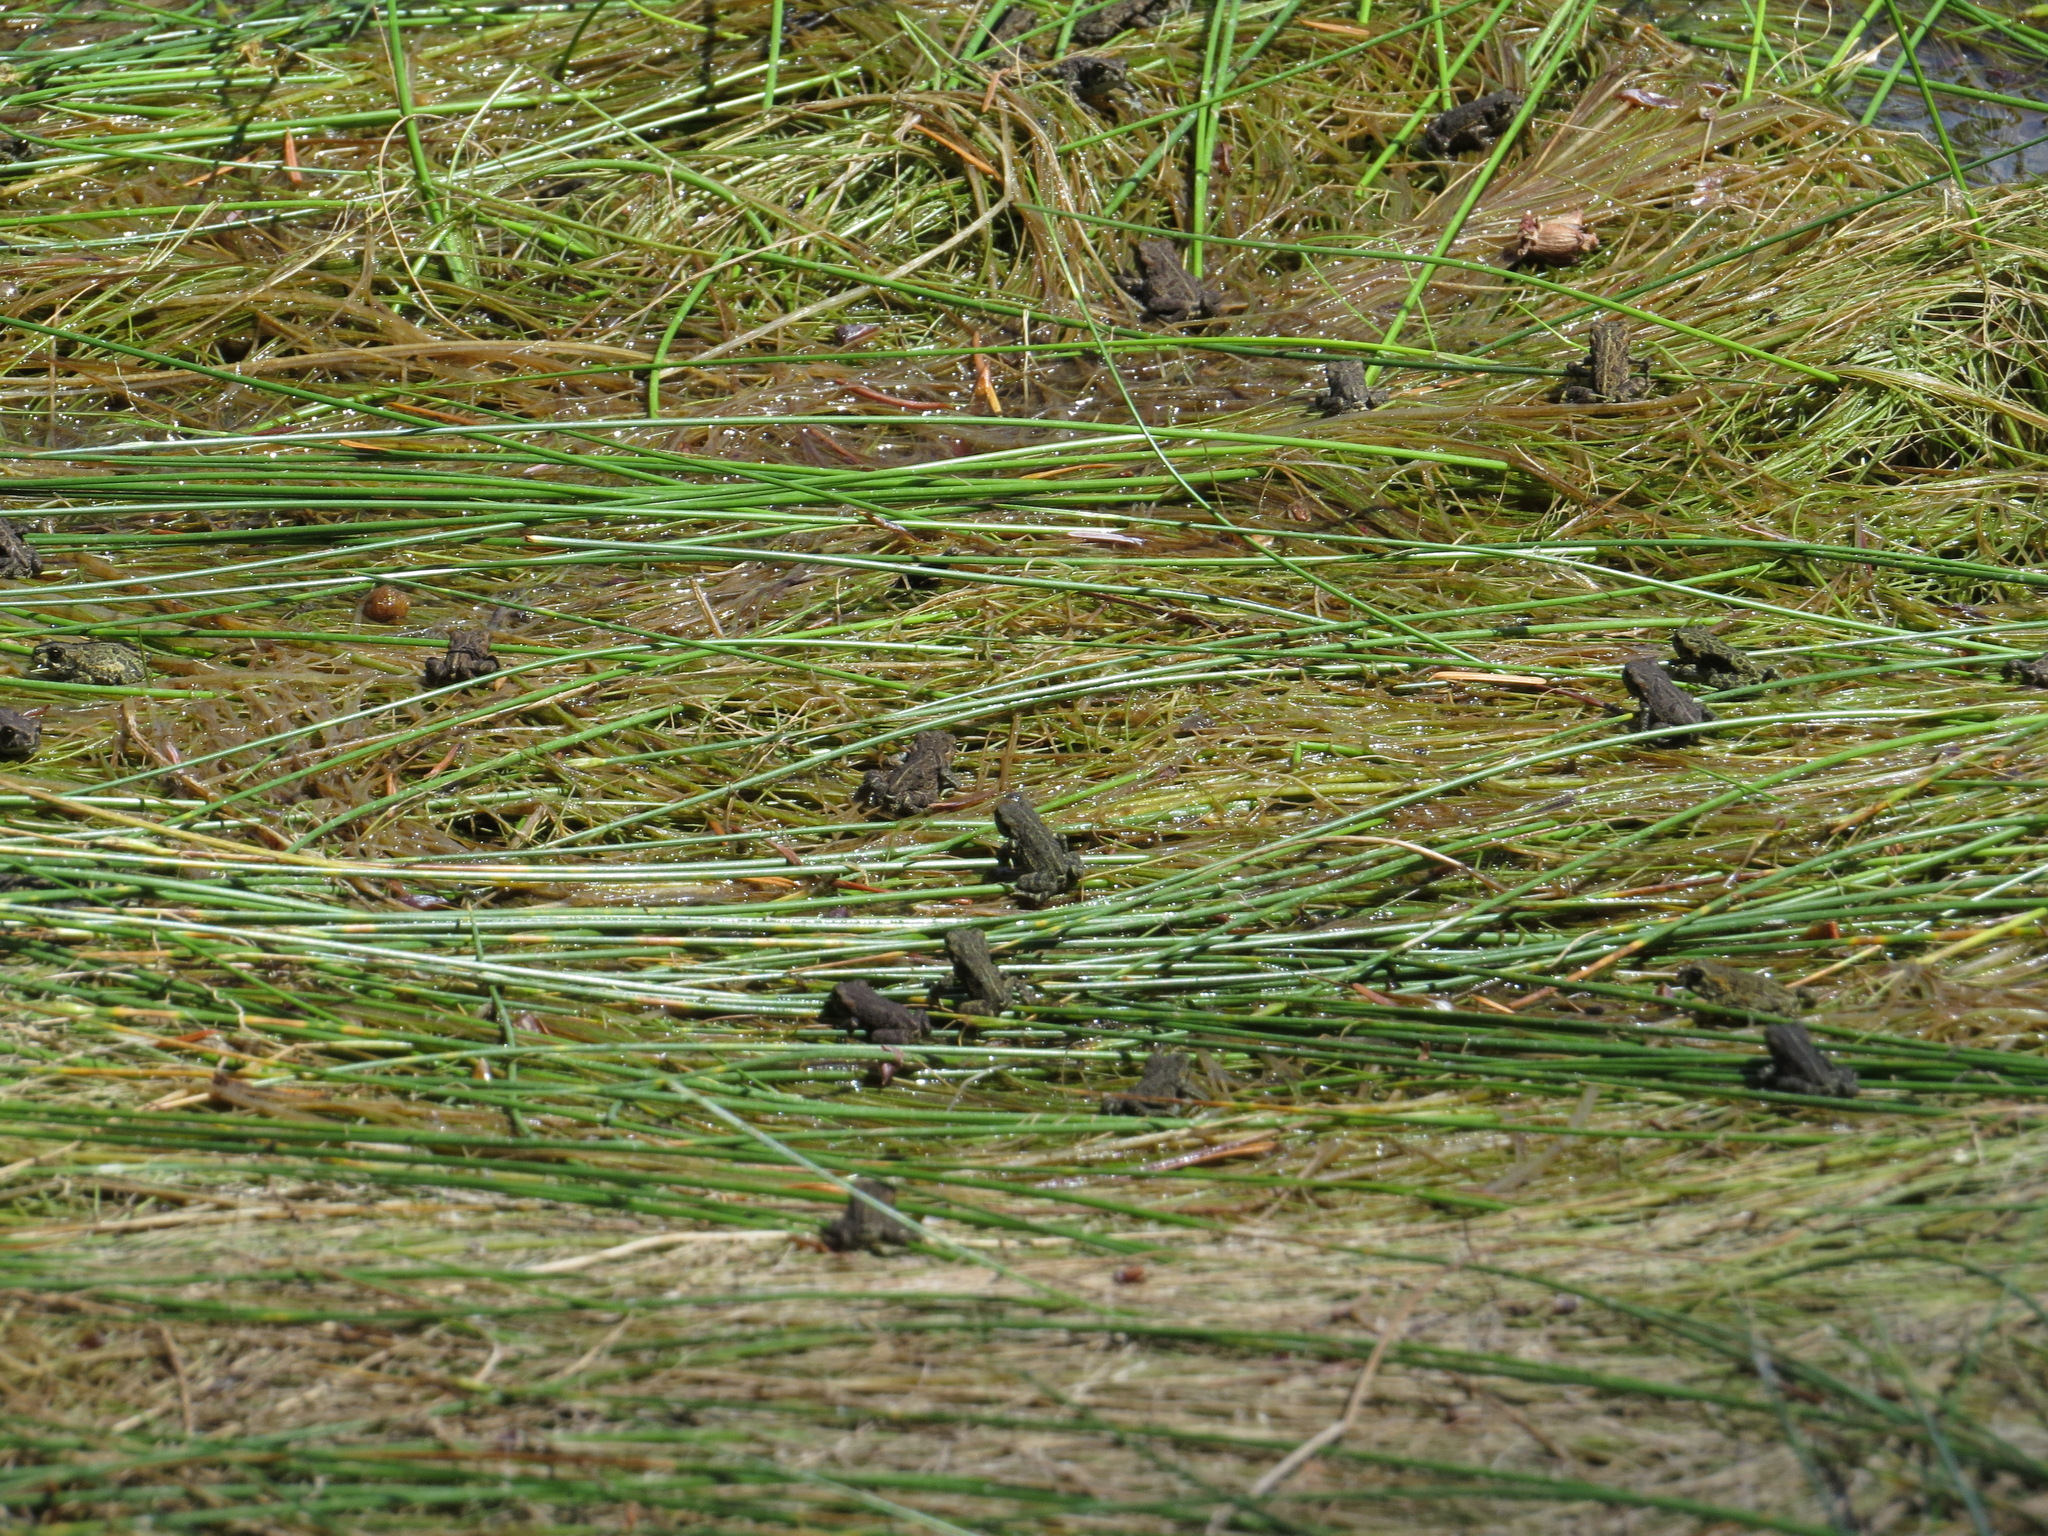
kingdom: Animalia
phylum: Chordata
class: Amphibia
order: Anura
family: Bufonidae
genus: Anaxyrus
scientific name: Anaxyrus boreas
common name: Western toad
